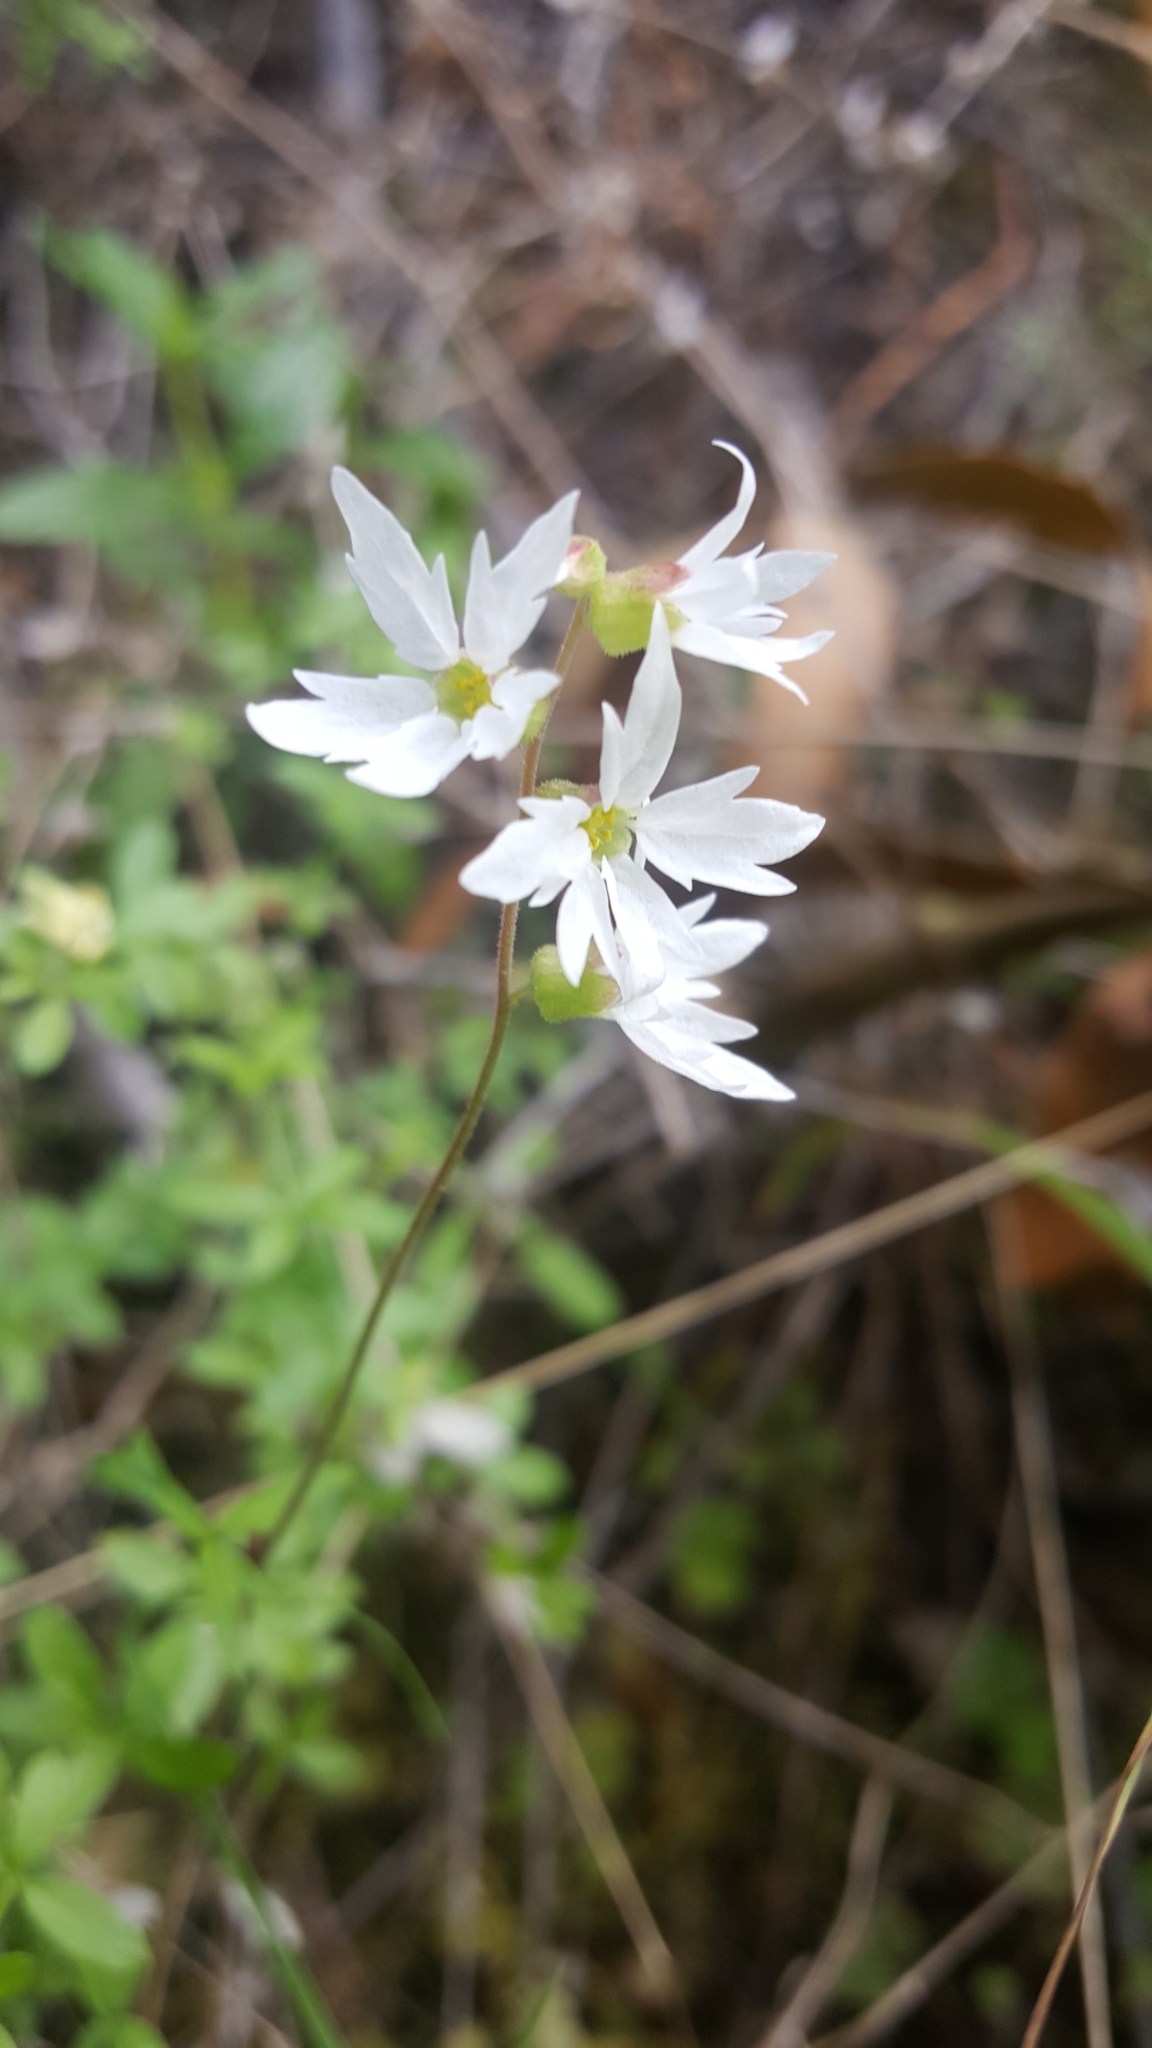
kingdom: Plantae
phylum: Tracheophyta
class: Magnoliopsida
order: Saxifragales
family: Saxifragaceae
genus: Lithophragma
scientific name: Lithophragma heterophyllum
